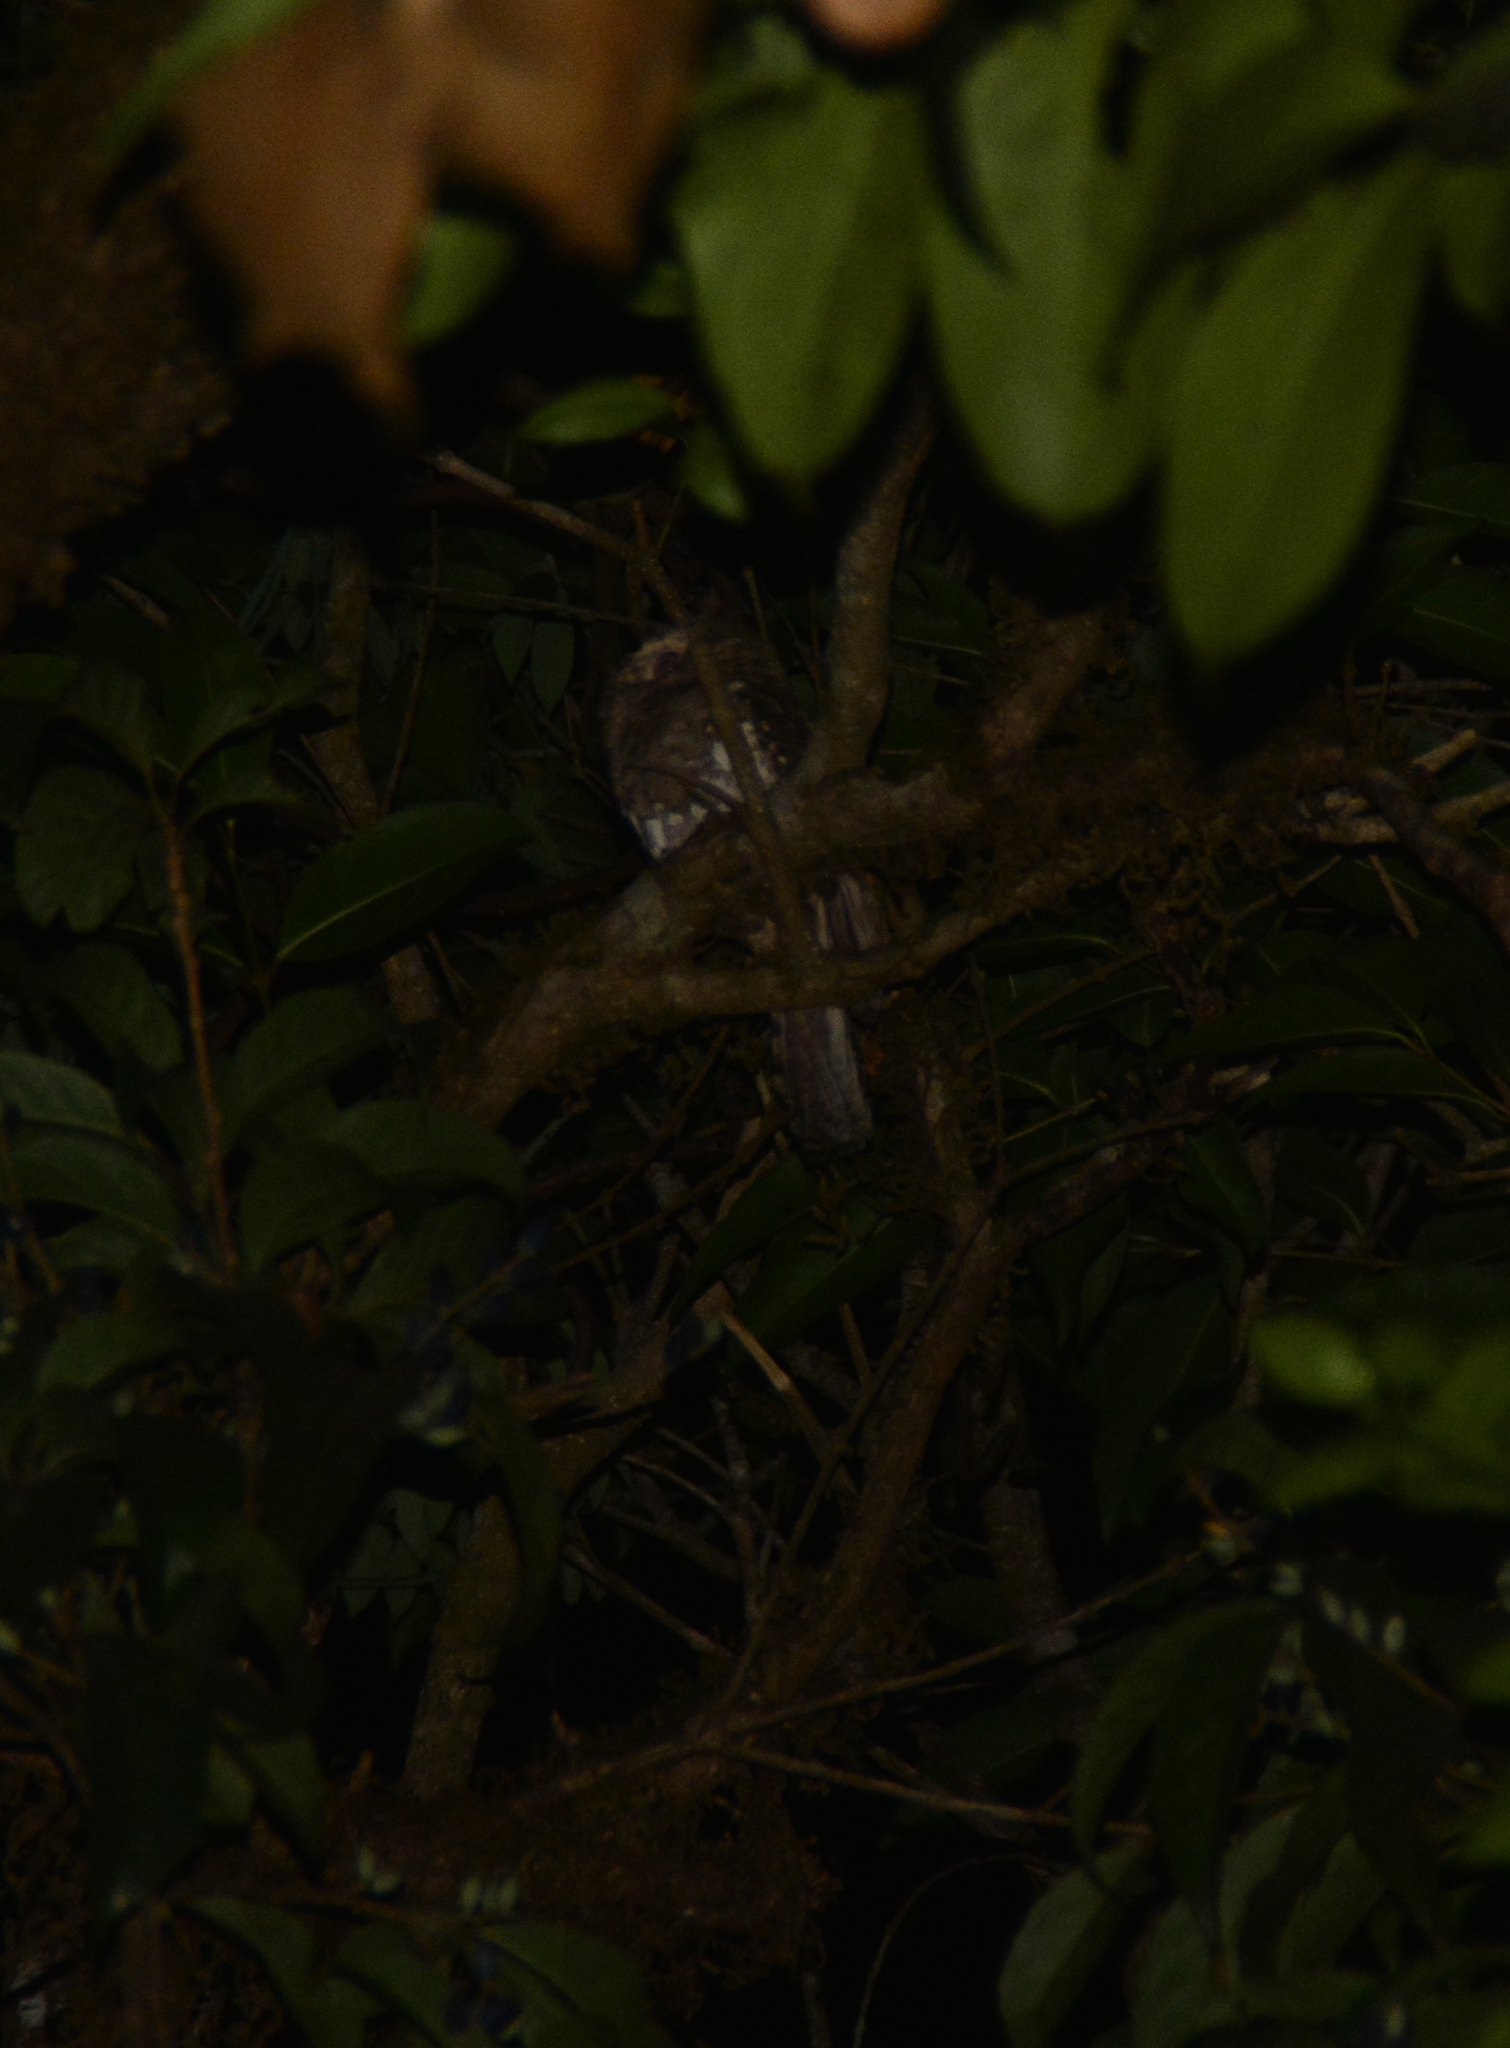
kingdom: Animalia
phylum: Chordata
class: Aves
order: Caprimulgiformes
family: Podargidae
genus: Batrachostomus
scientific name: Batrachostomus moniliger
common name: Sri lanka frogmouth
